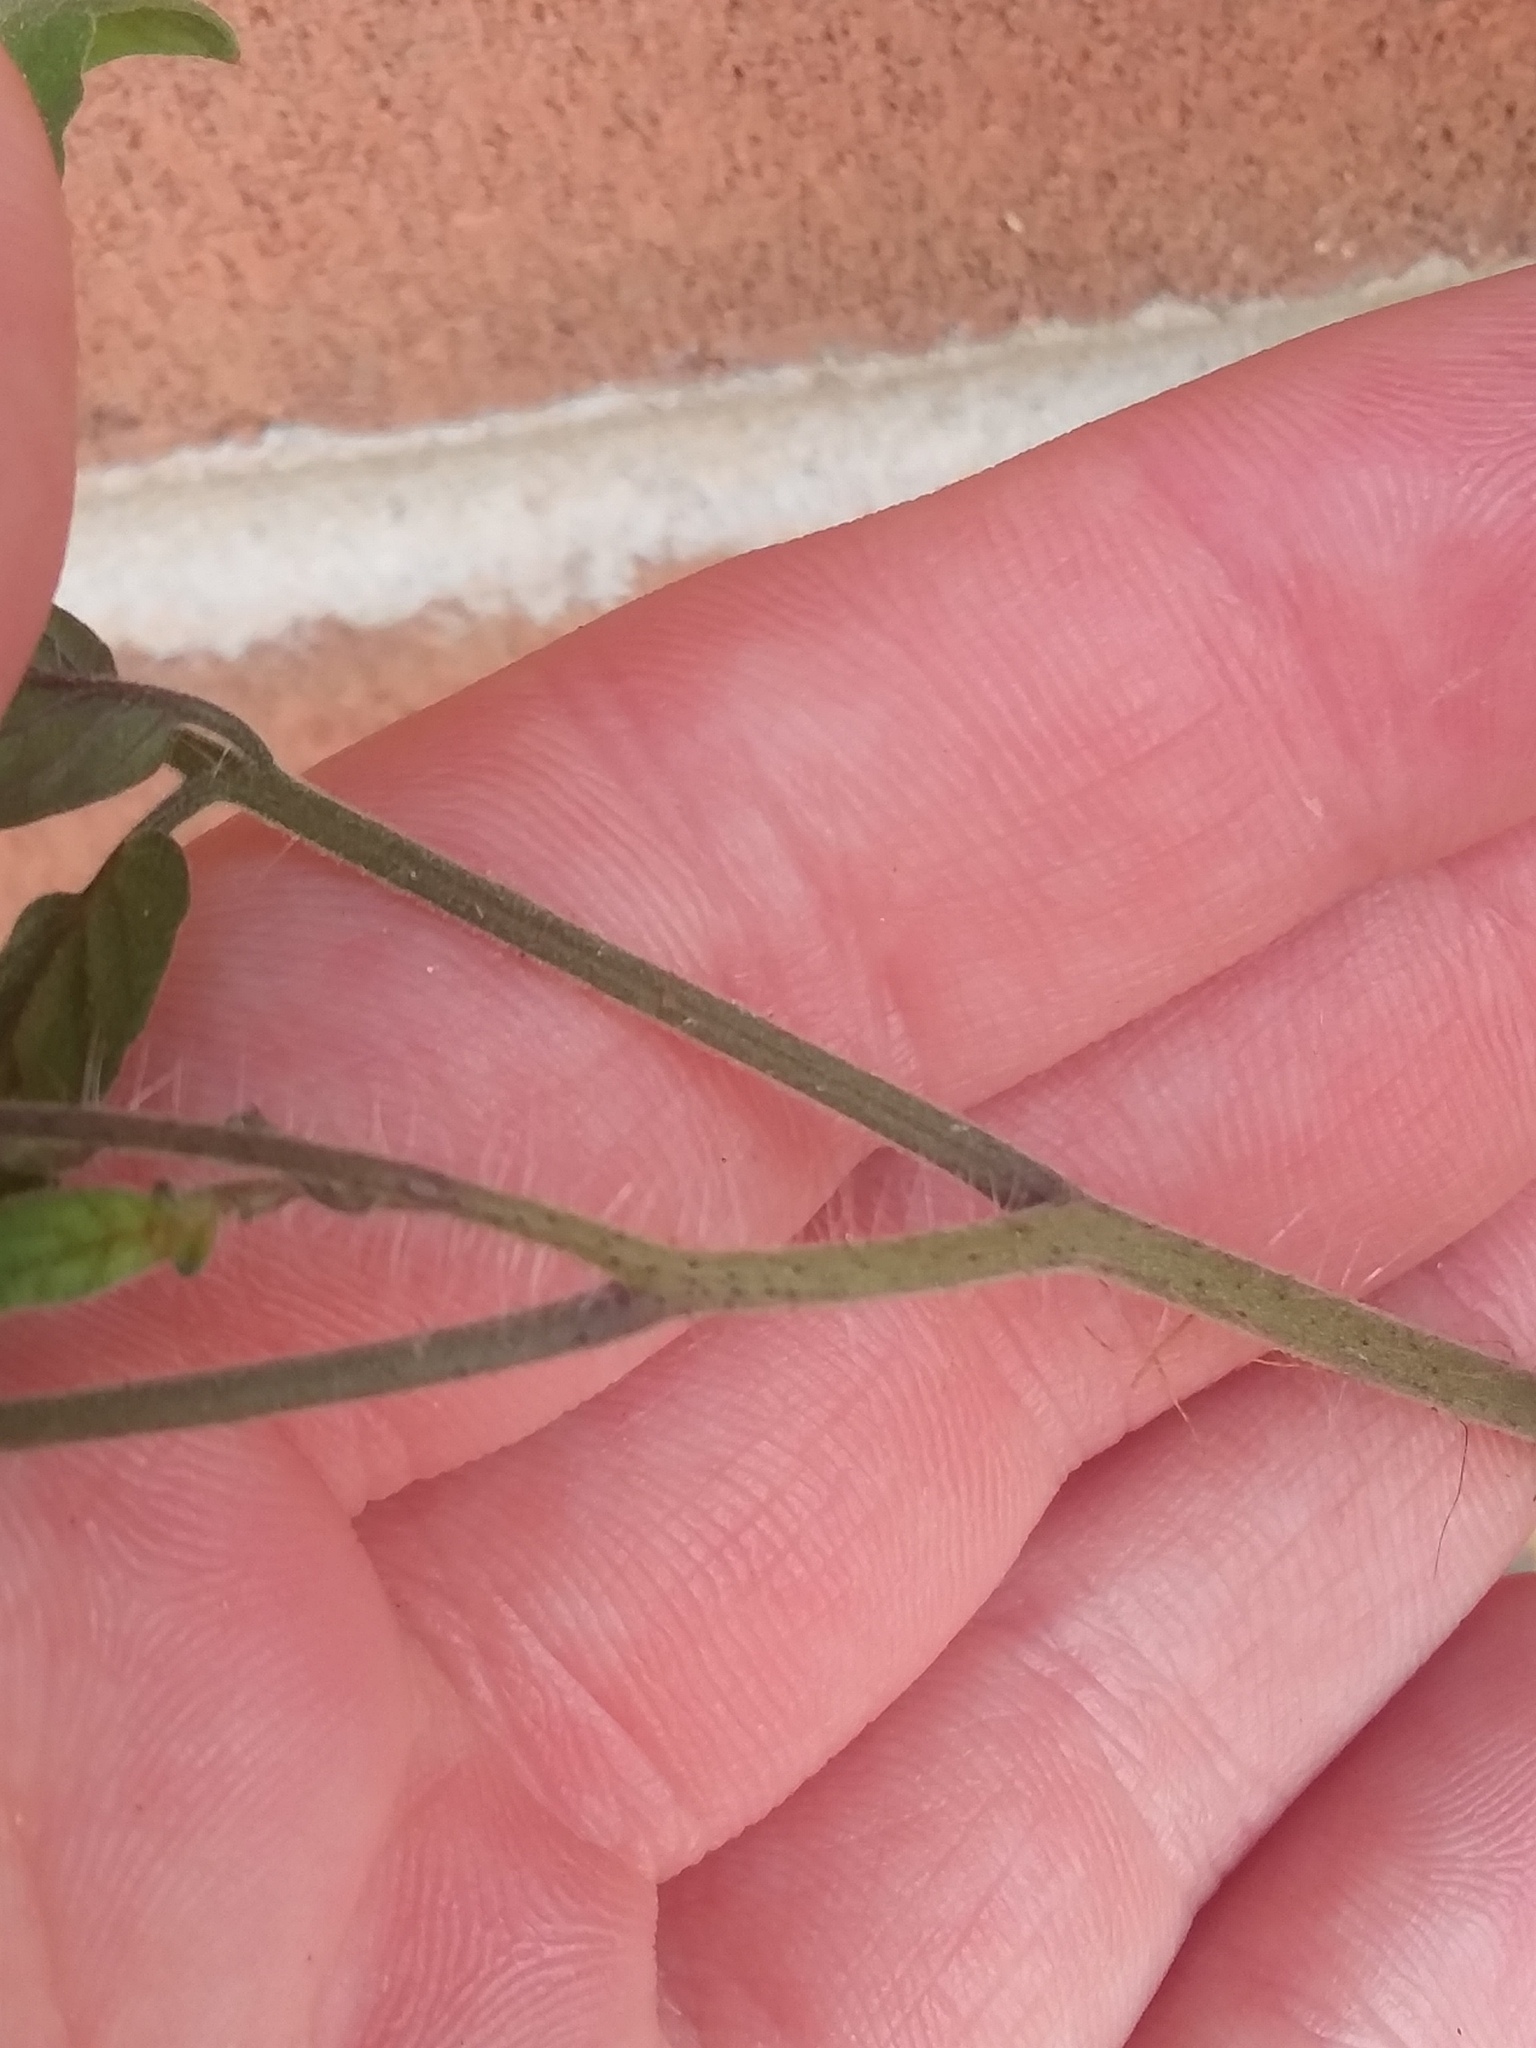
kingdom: Plantae
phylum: Tracheophyta
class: Magnoliopsida
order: Solanales
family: Solanaceae
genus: Solanum
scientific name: Solanum lycopersicum
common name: Garden tomato
